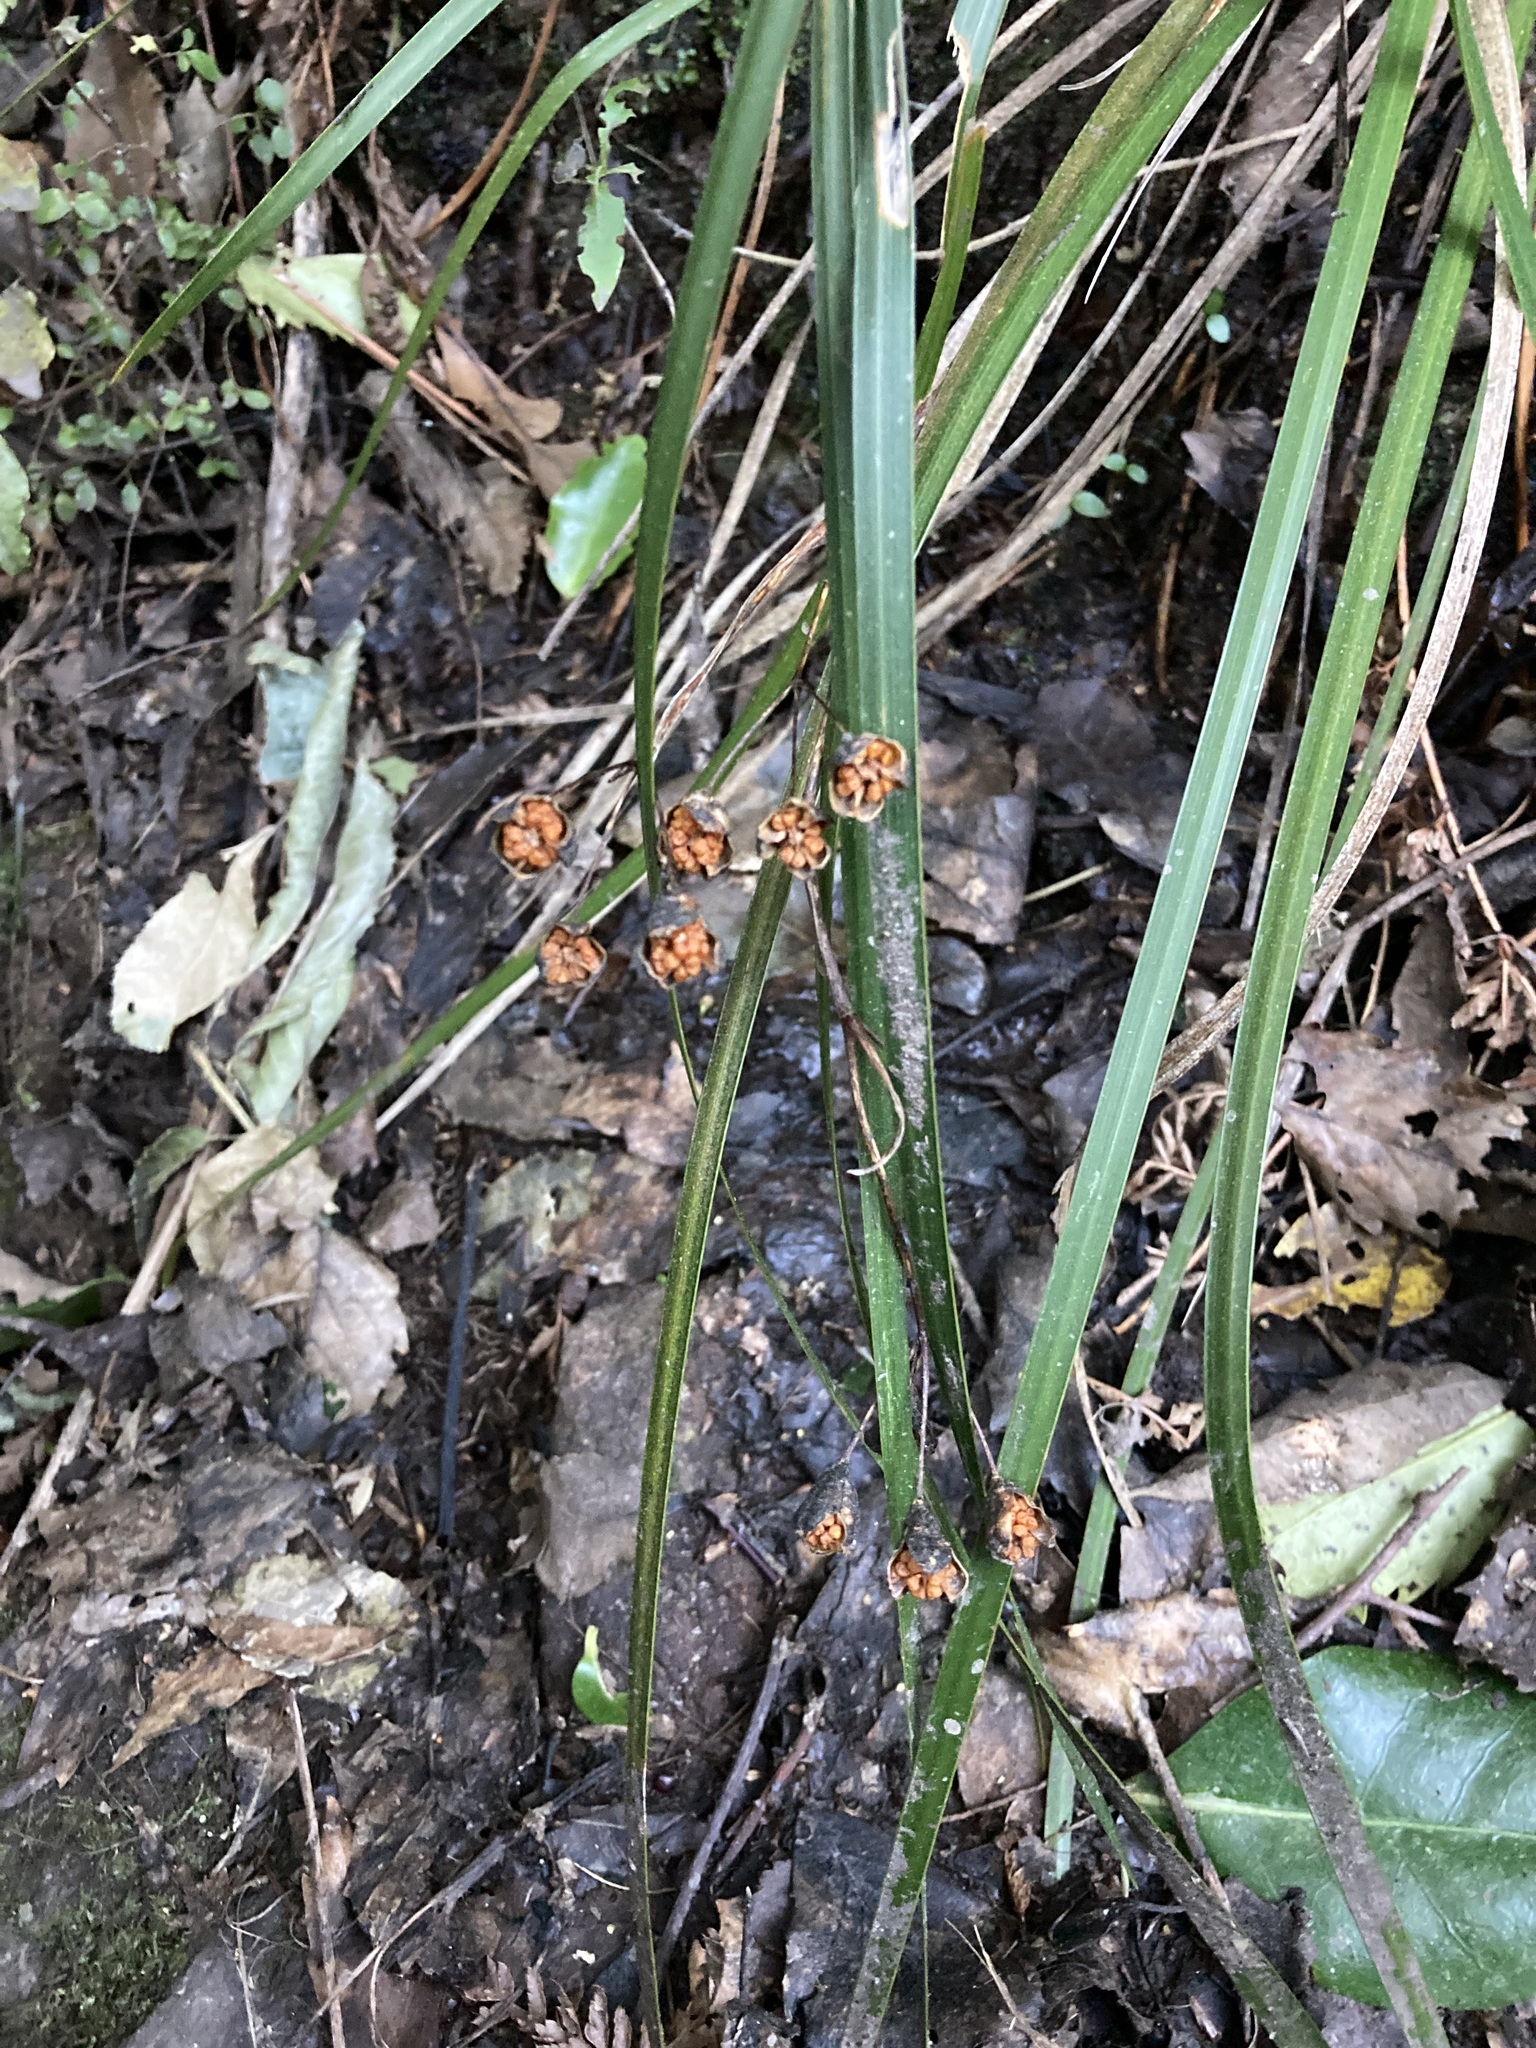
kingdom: Plantae
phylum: Tracheophyta
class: Liliopsida
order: Asparagales
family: Iridaceae
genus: Libertia
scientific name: Libertia ixioides
